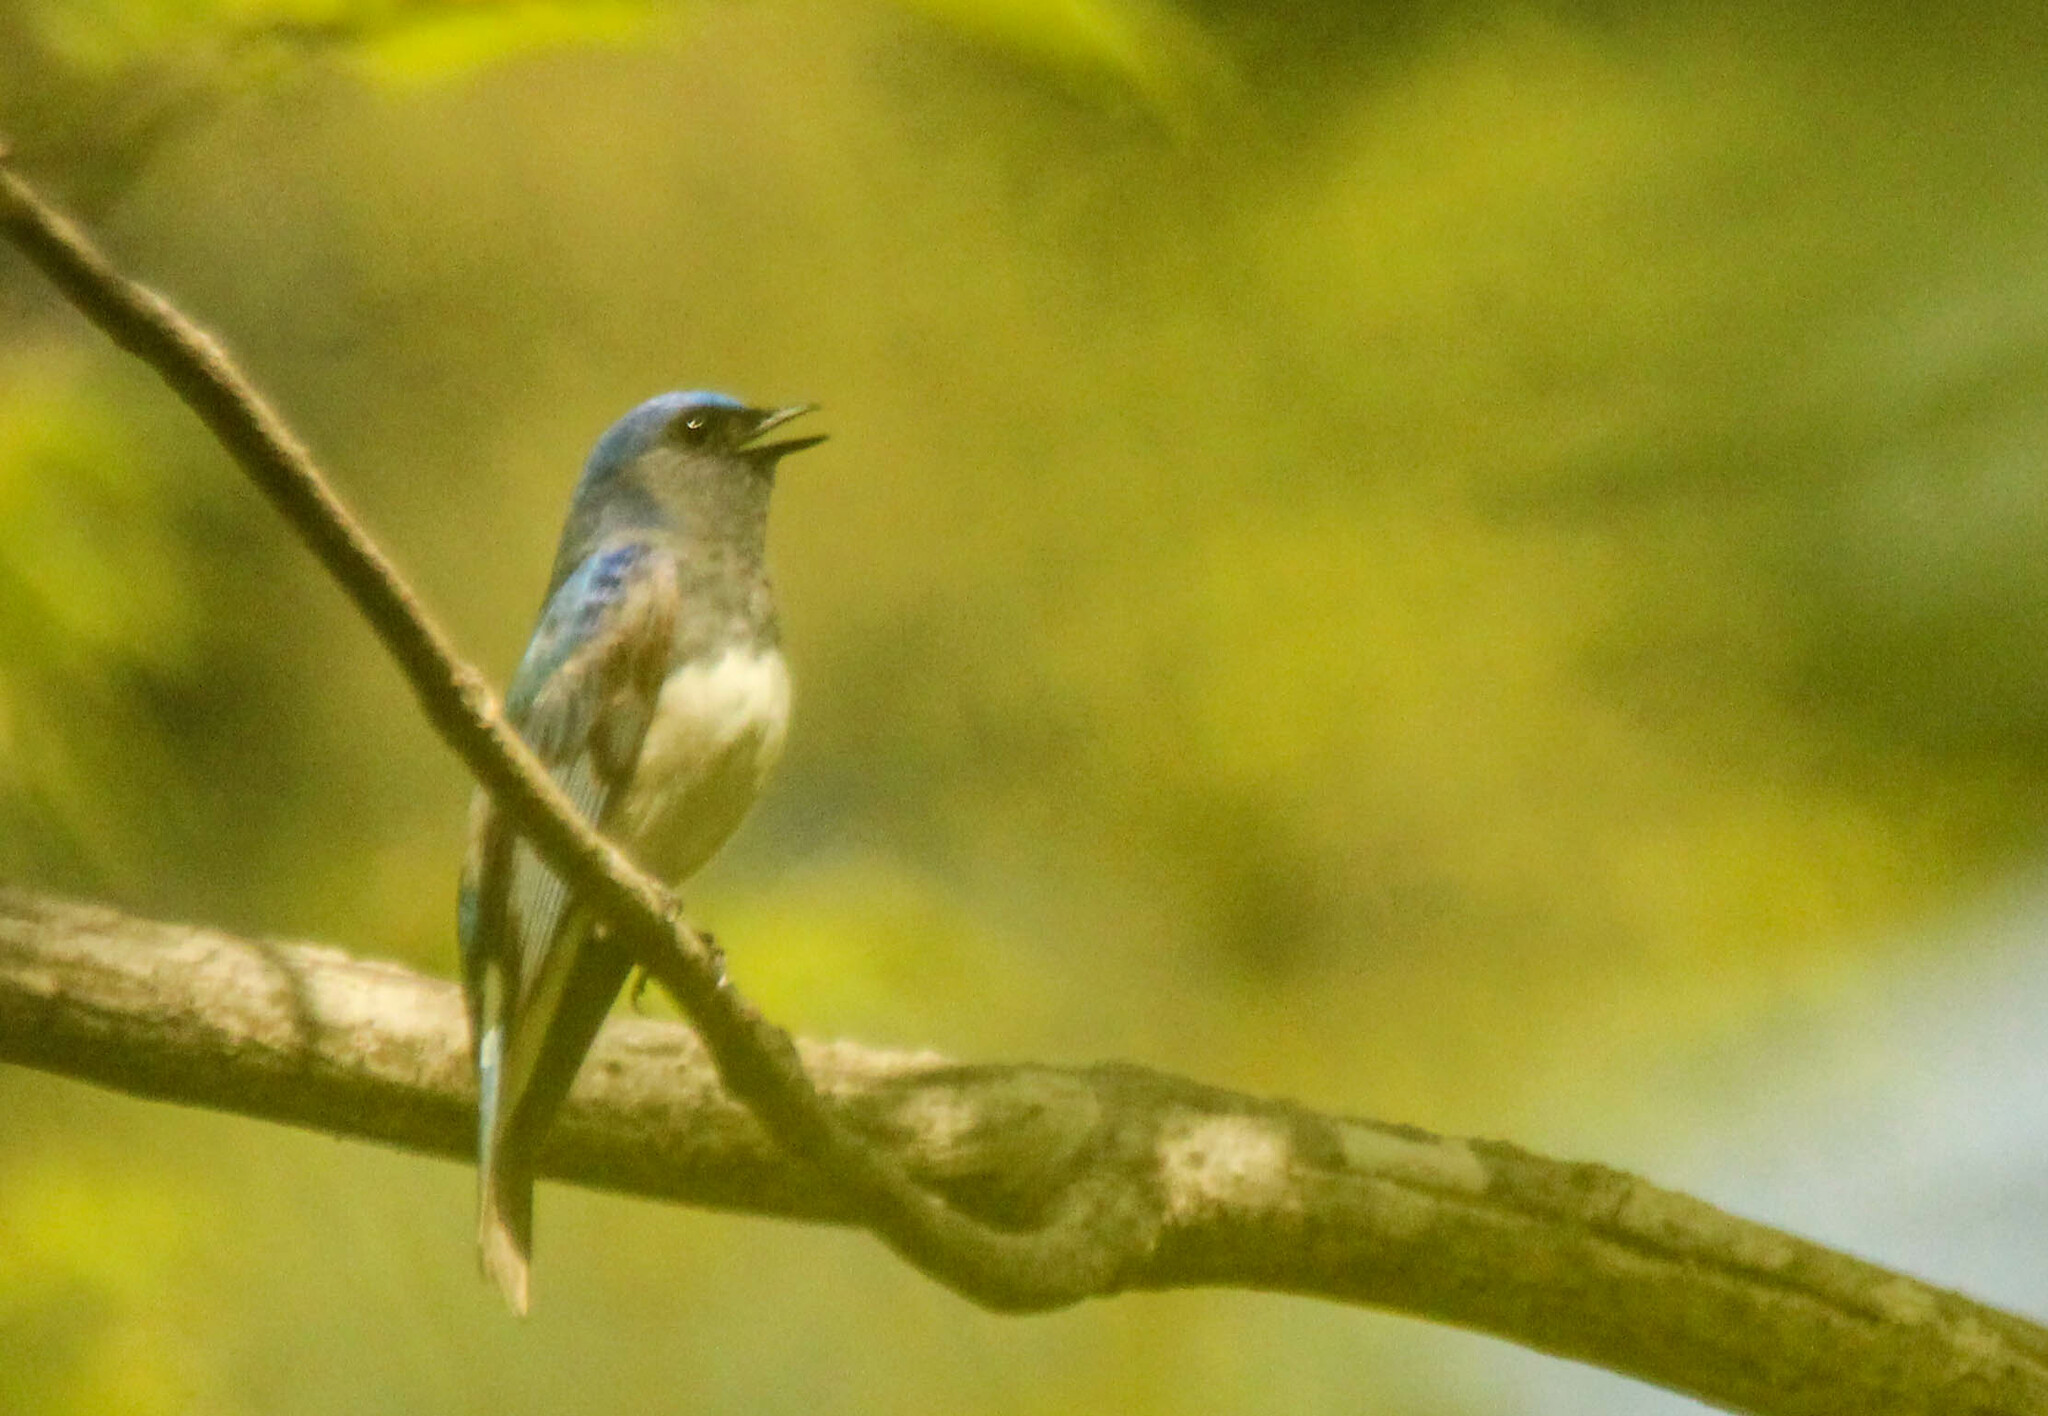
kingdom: Animalia
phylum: Chordata
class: Aves
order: Passeriformes
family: Muscicapidae
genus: Cyanoptila
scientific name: Cyanoptila cyanomelana
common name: Blue-and-white flycatcher
